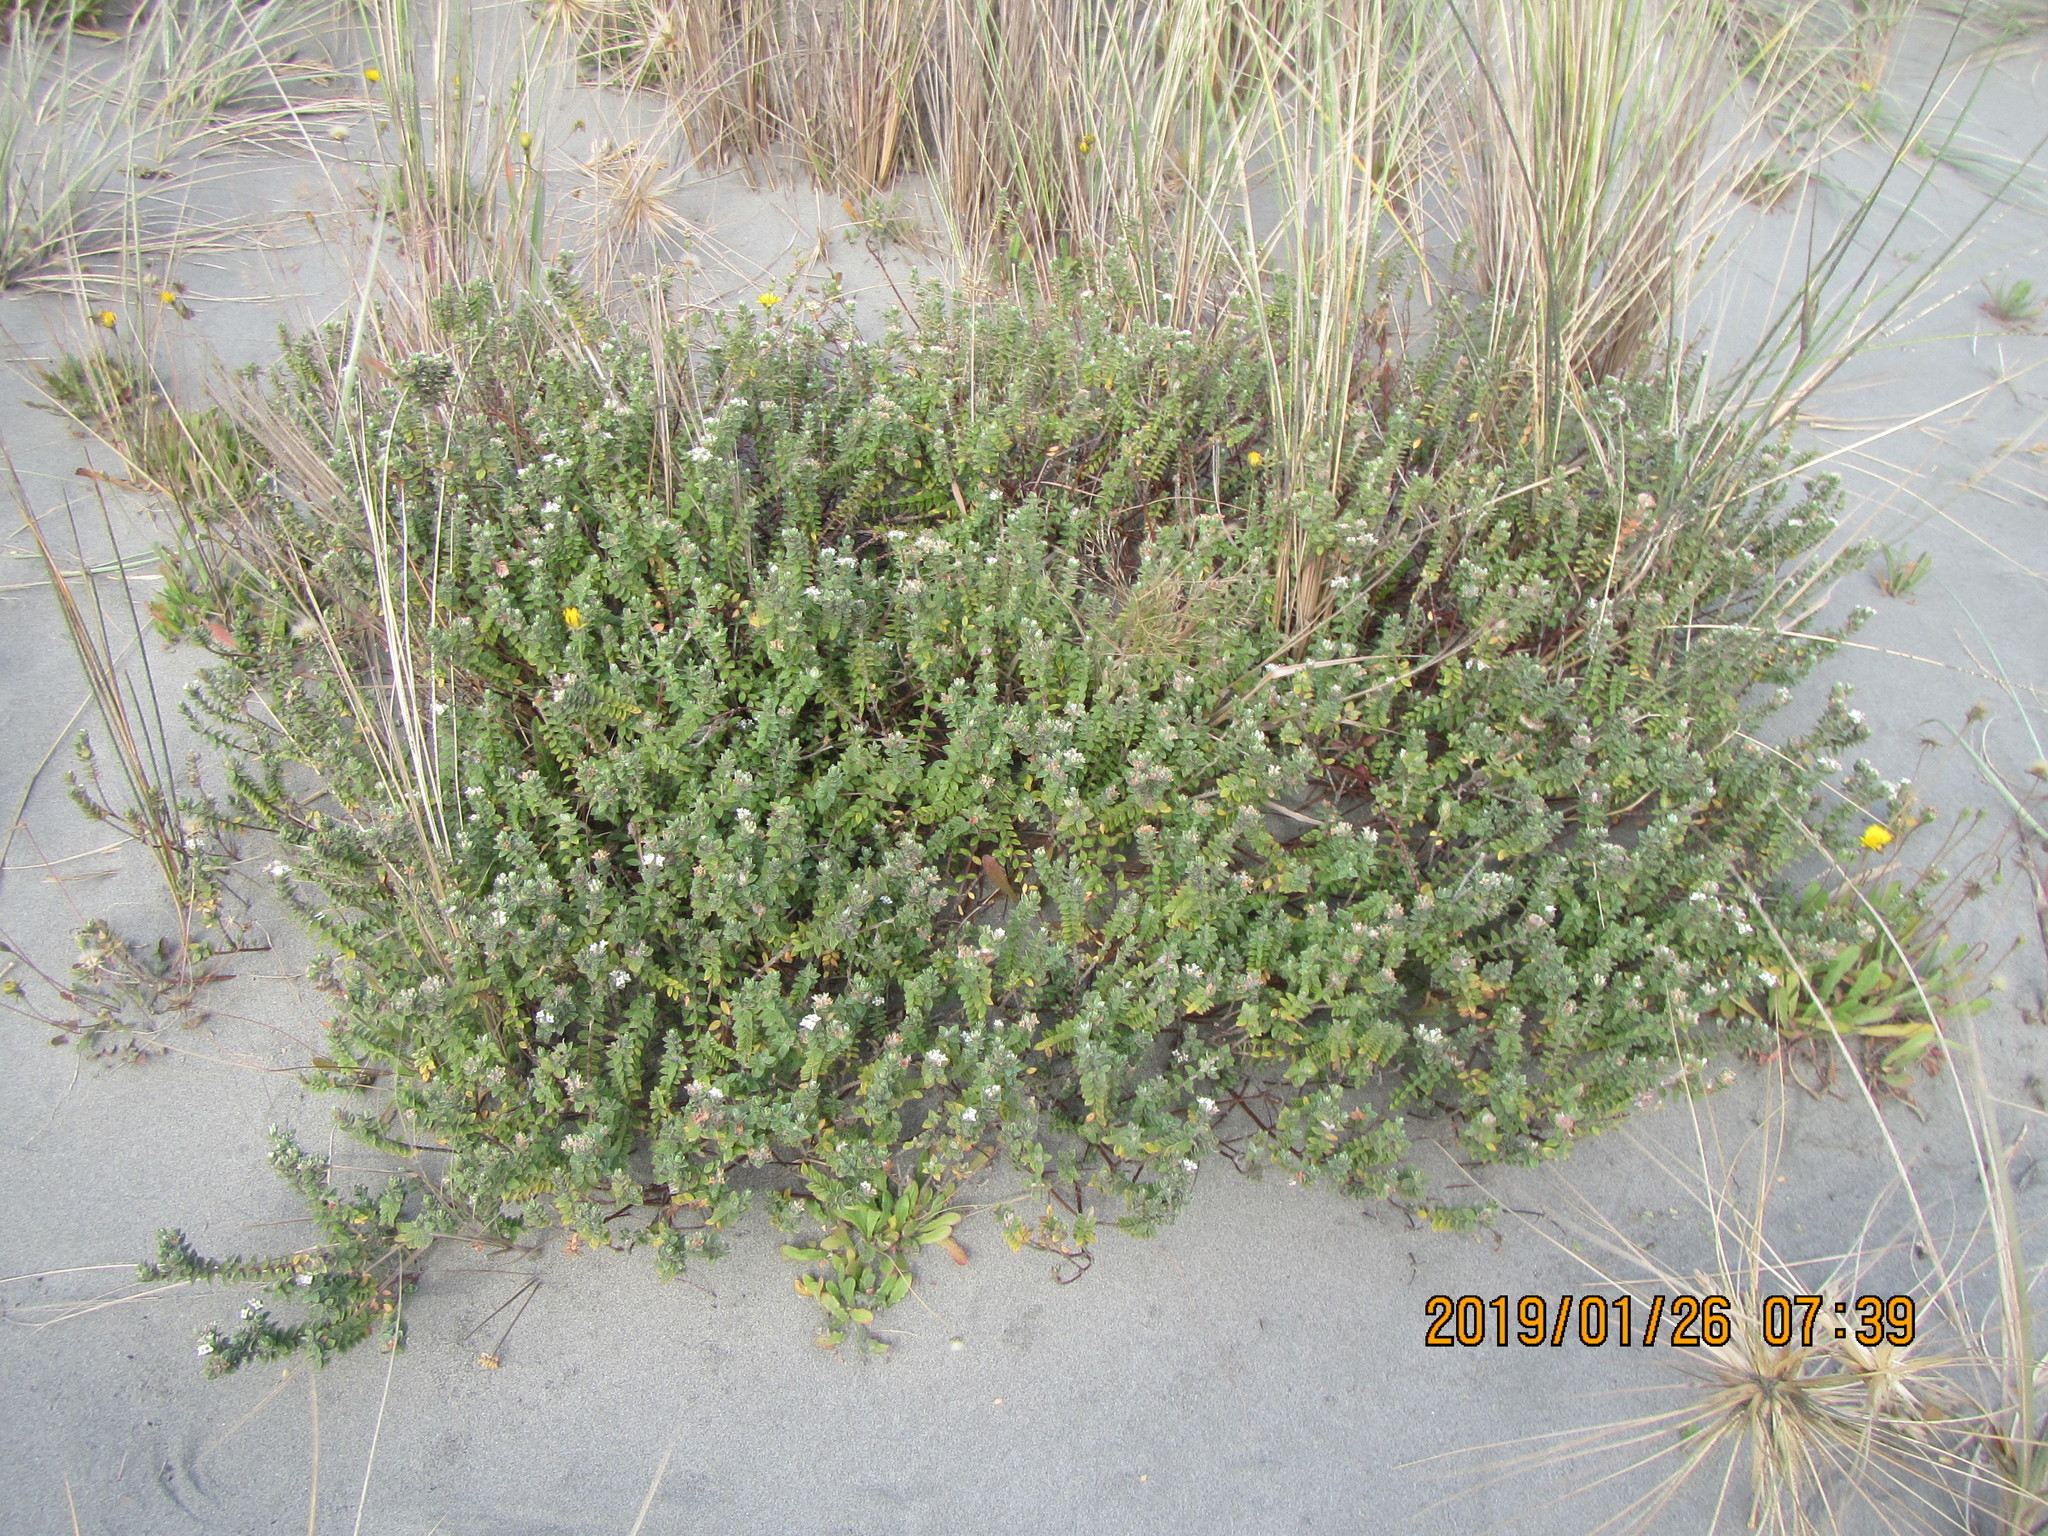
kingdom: Plantae
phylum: Tracheophyta
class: Magnoliopsida
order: Malvales
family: Thymelaeaceae
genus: Pimelea
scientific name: Pimelea villosa
